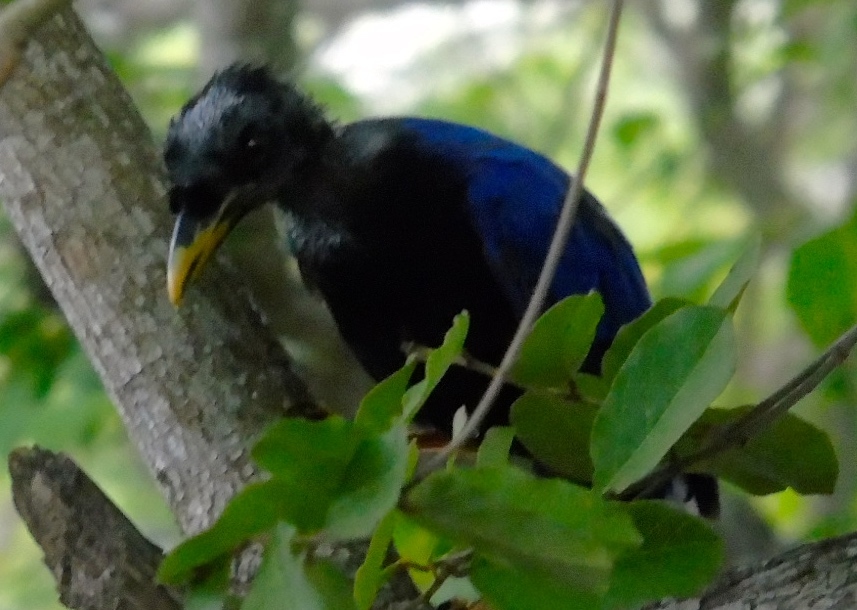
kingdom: Animalia
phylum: Chordata
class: Aves
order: Passeriformes
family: Corvidae
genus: Cyanocorax
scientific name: Cyanocorax beecheii
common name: Purplish-backed jay
